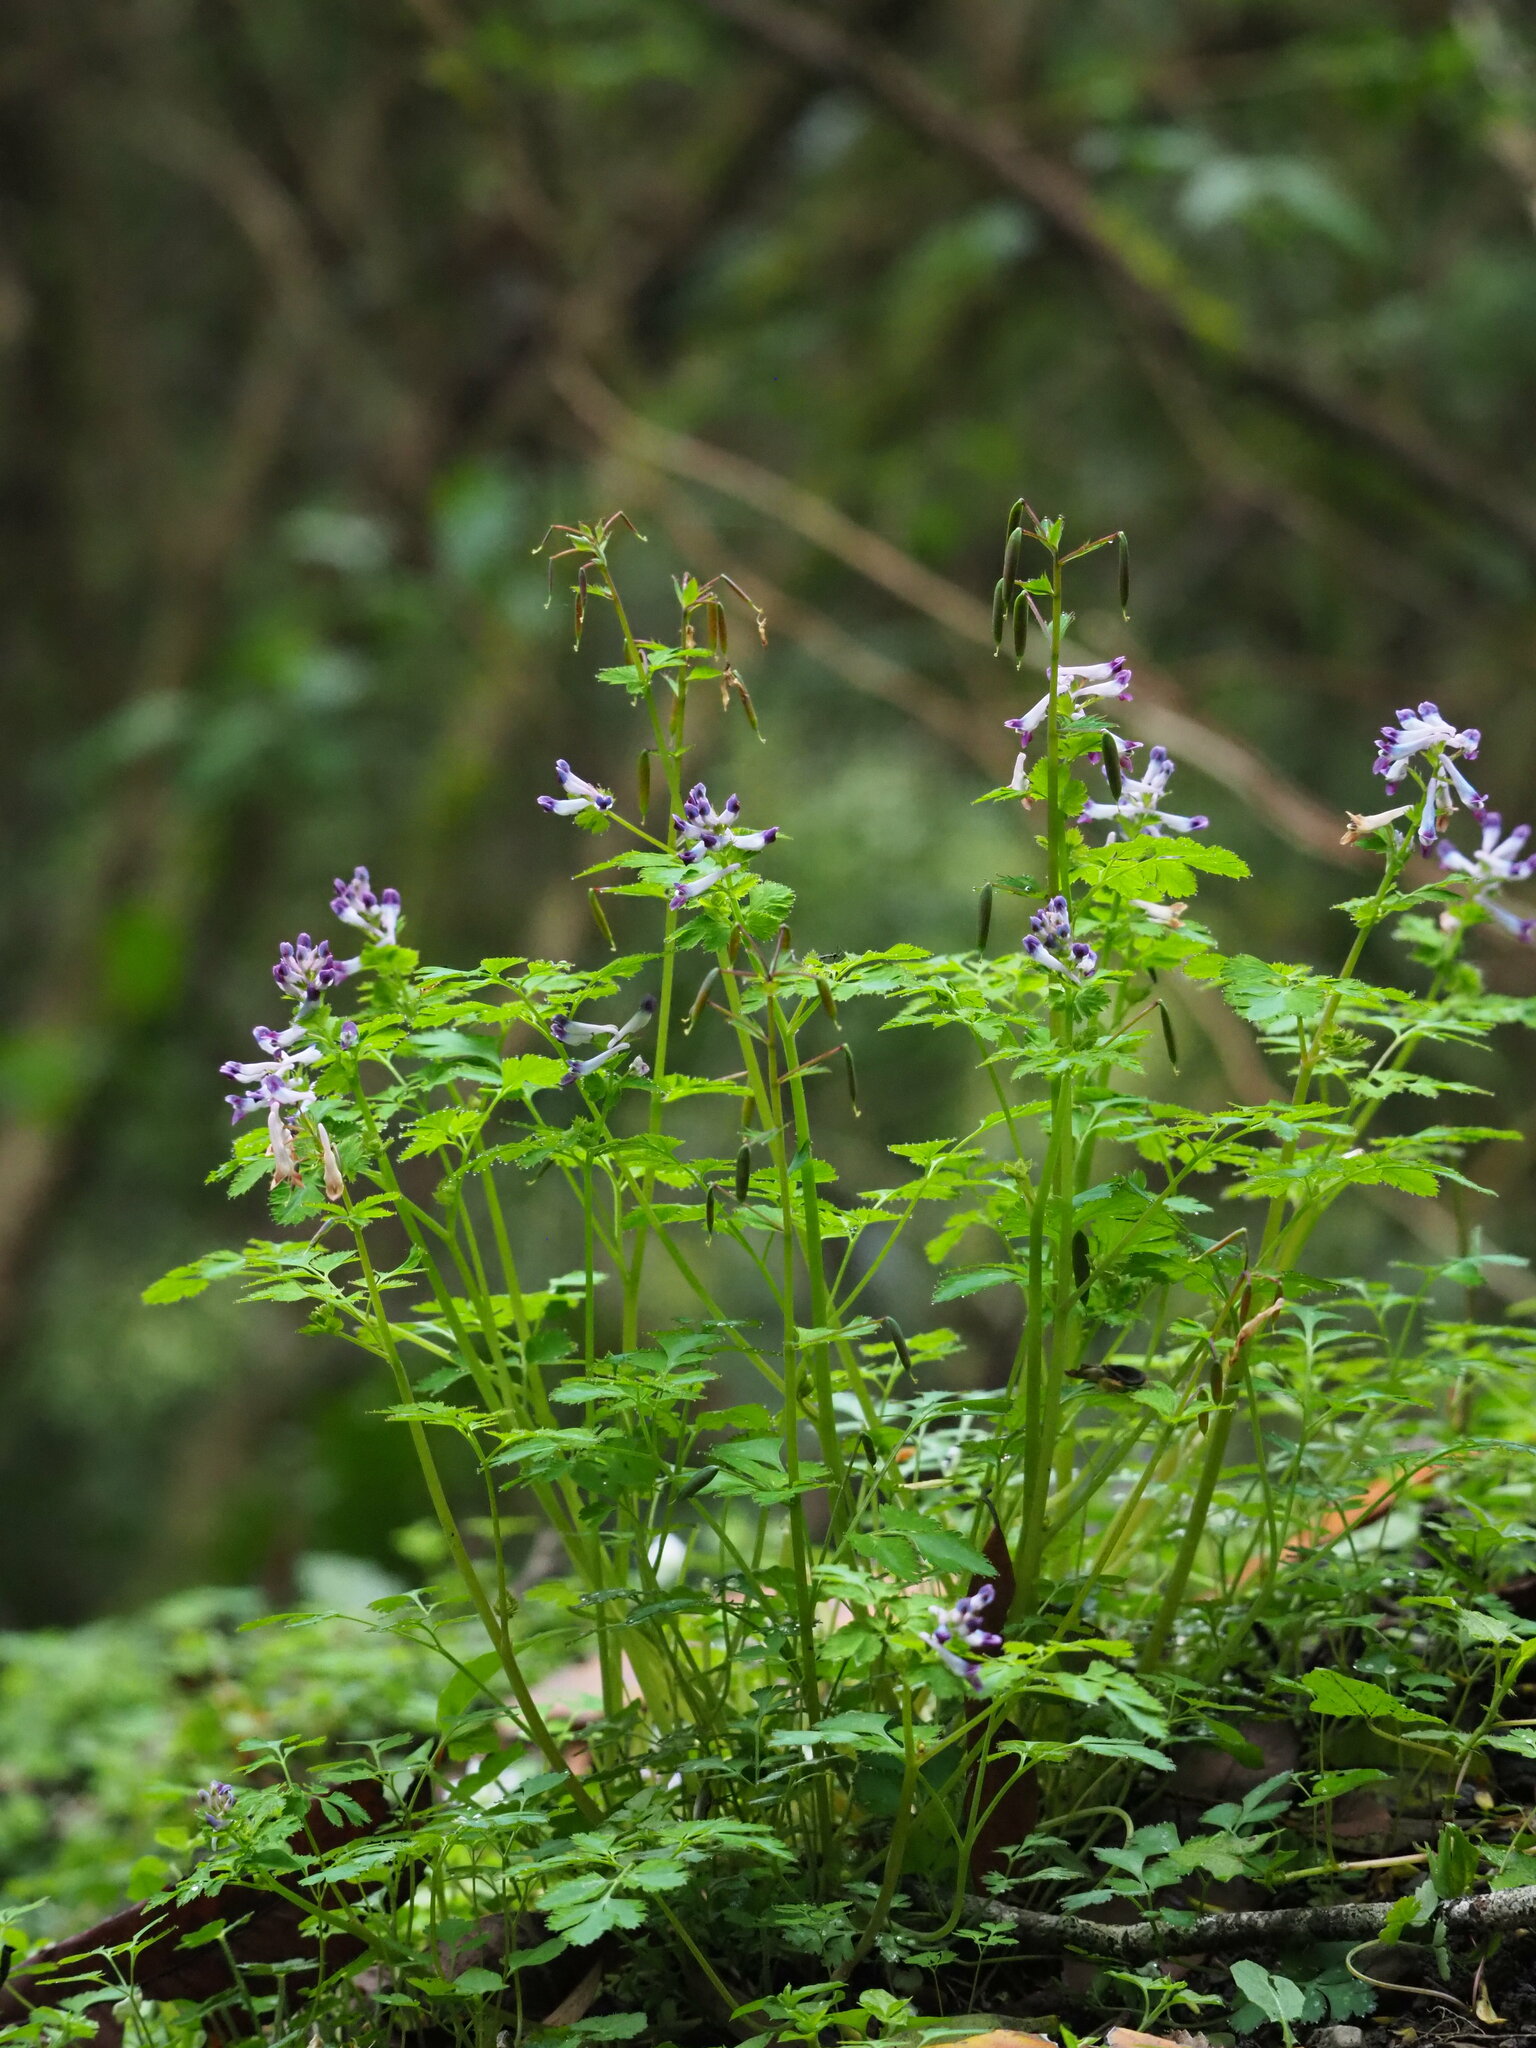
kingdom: Plantae
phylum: Tracheophyta
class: Magnoliopsida
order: Ranunculales
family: Papaveraceae
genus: Corydalis
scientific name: Corydalis incisa
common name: Incised fumewort
